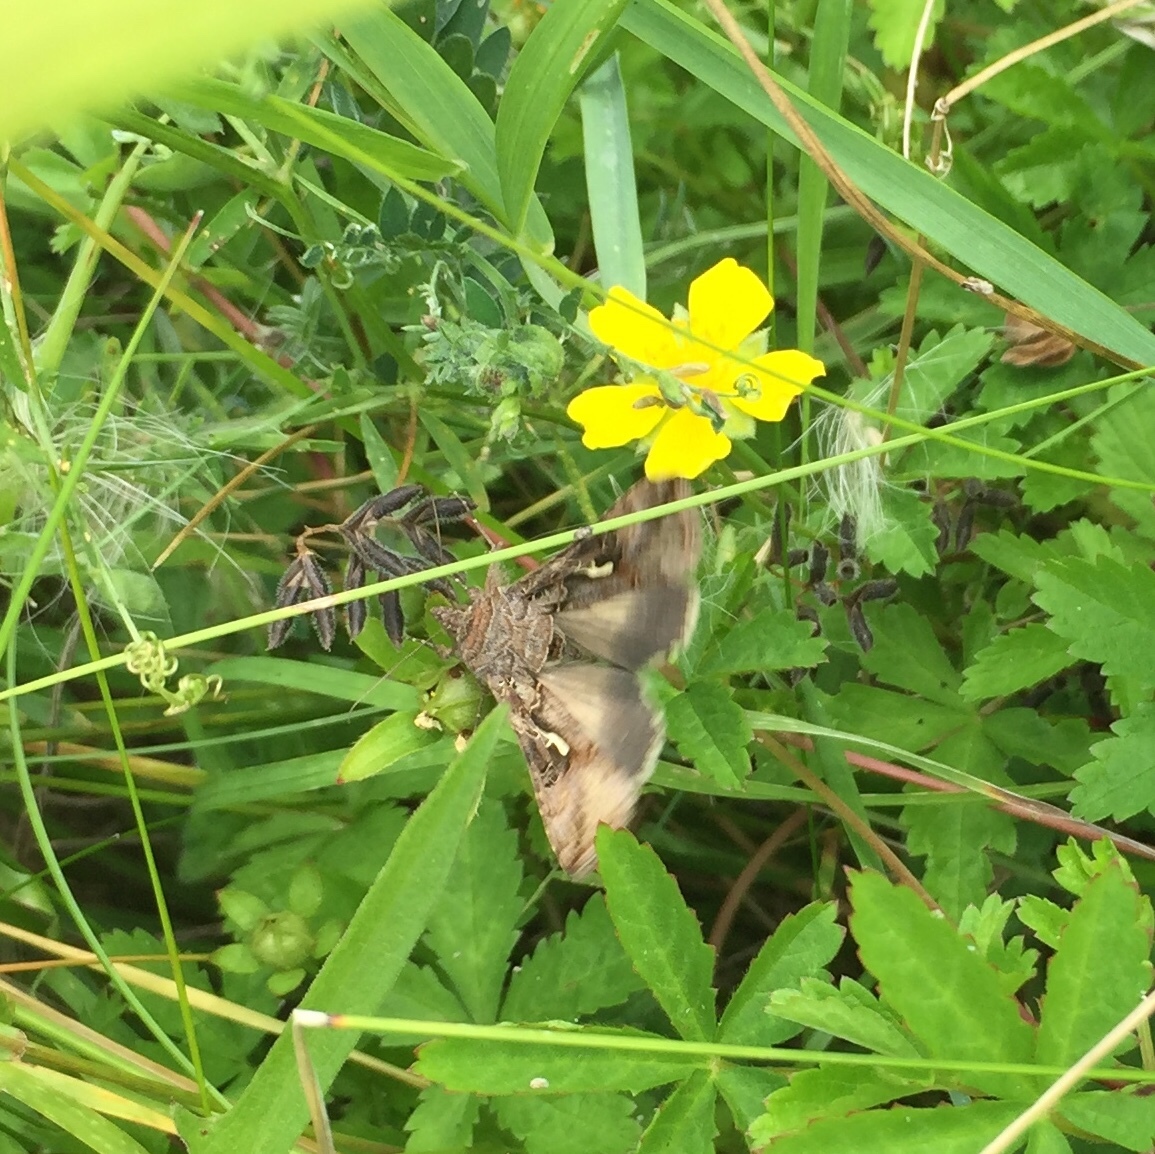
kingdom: Animalia
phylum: Arthropoda
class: Insecta
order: Lepidoptera
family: Noctuidae
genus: Autographa
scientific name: Autographa gamma
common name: Silver y
